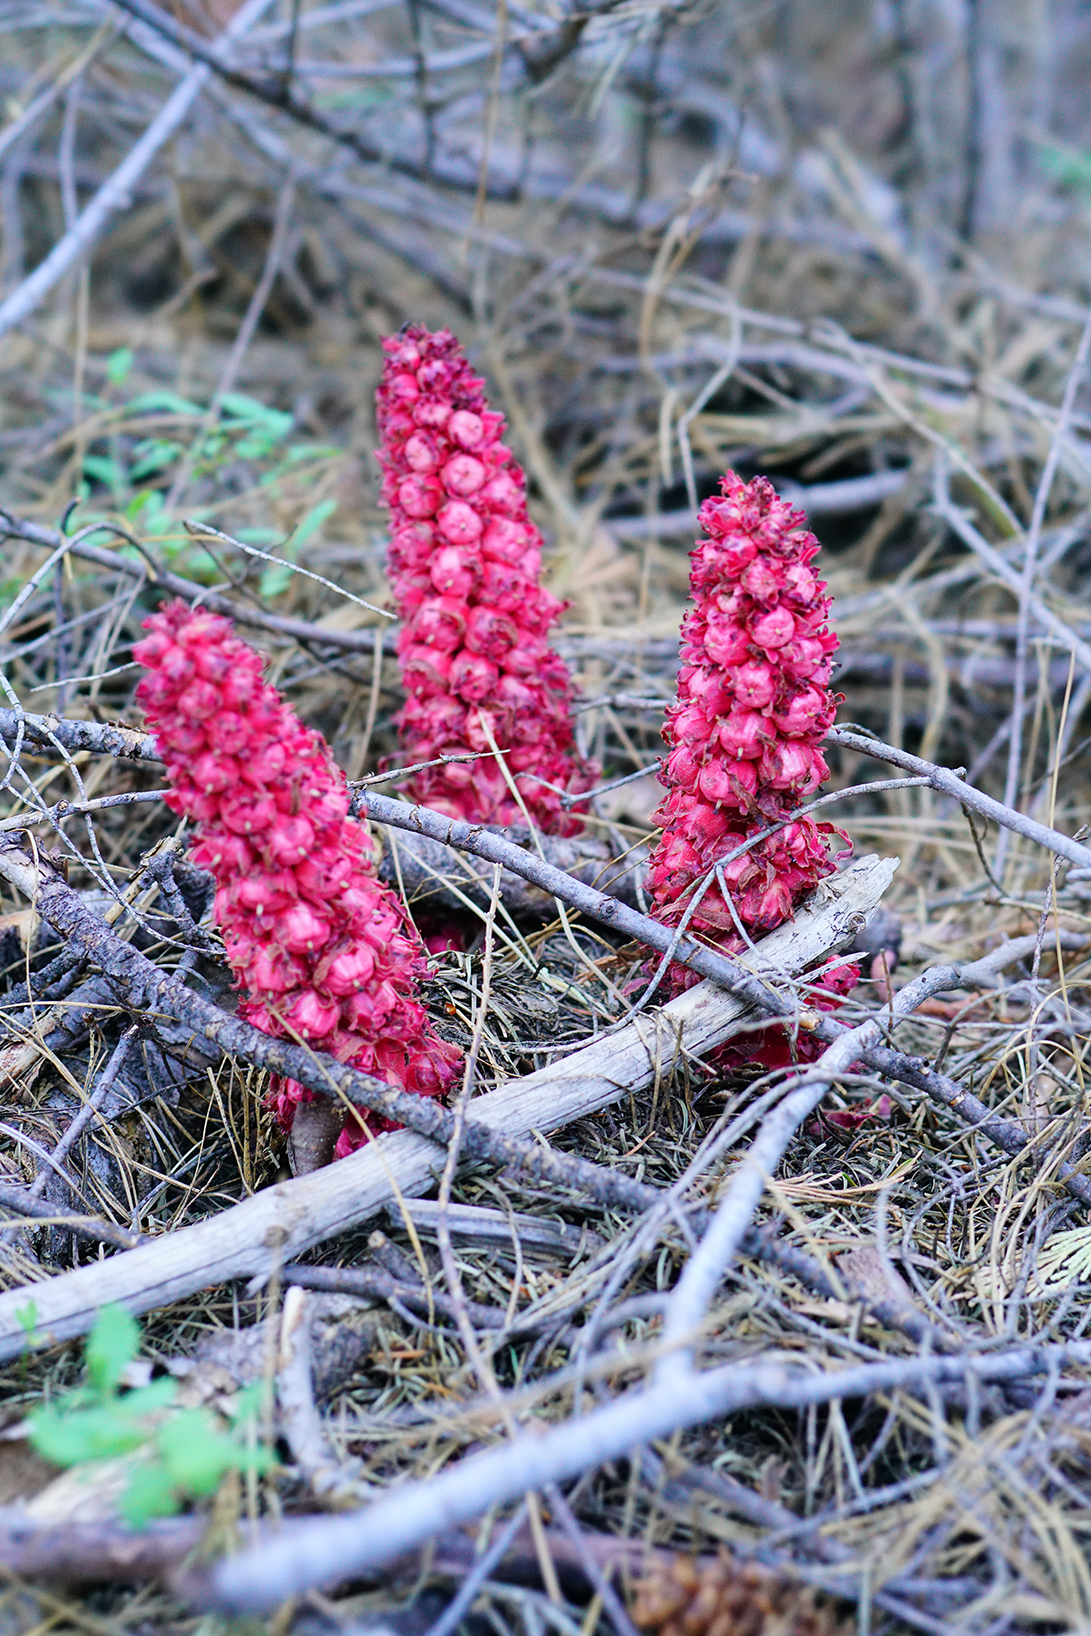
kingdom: Plantae
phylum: Tracheophyta
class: Magnoliopsida
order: Ericales
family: Ericaceae
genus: Sarcodes
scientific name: Sarcodes sanguinea
